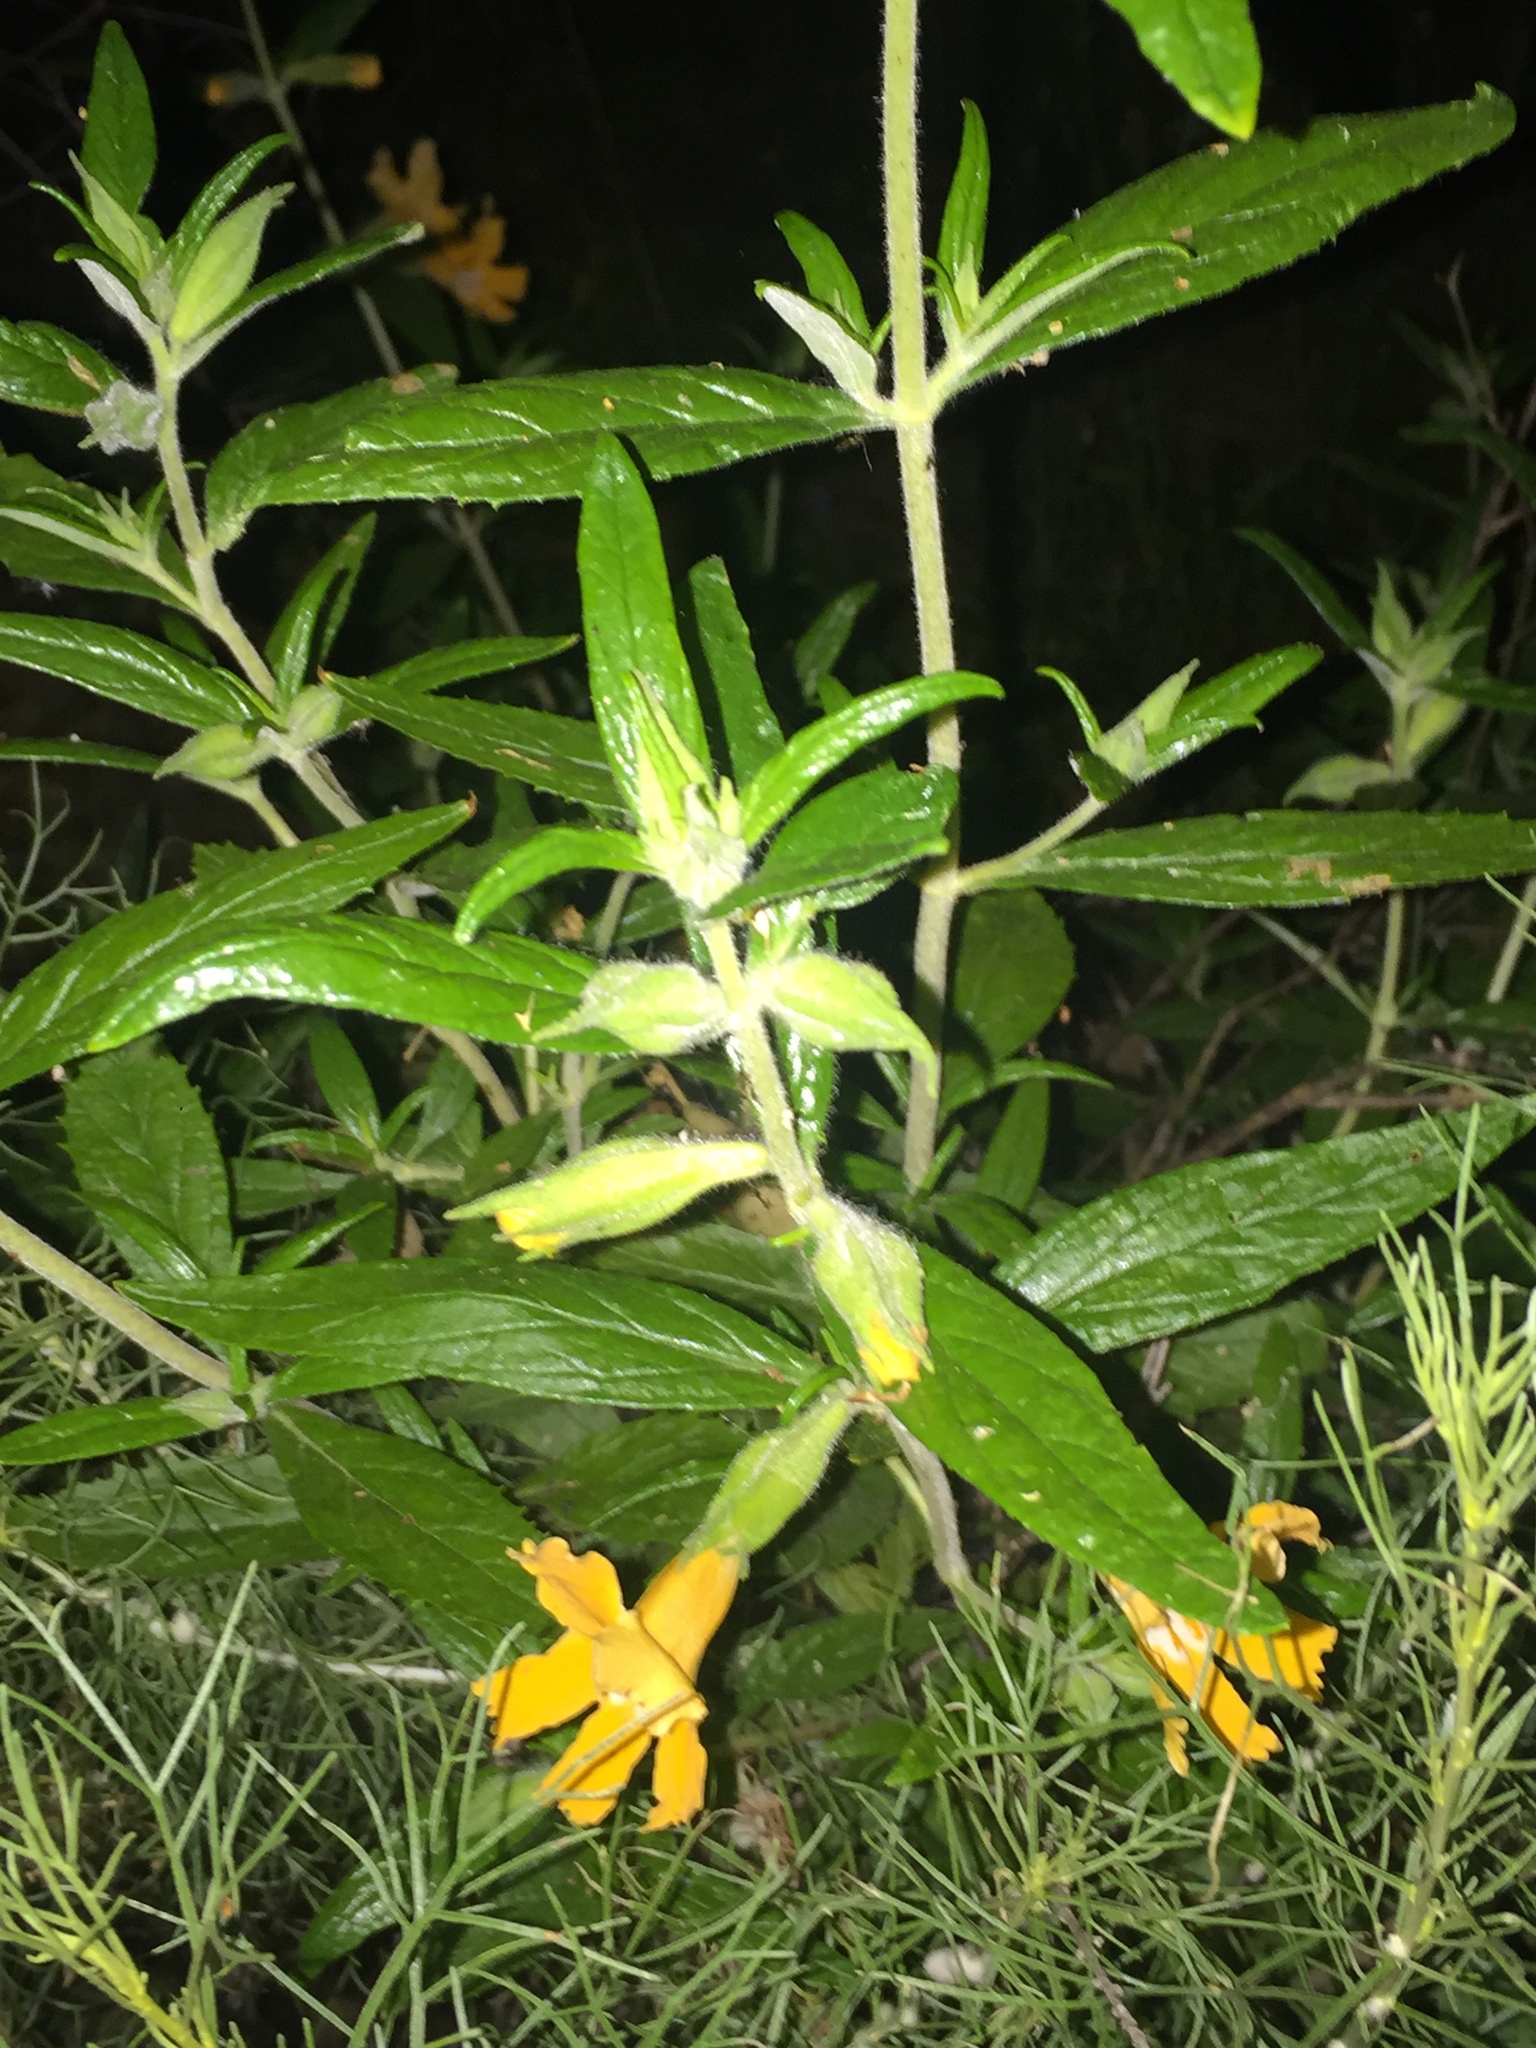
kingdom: Plantae
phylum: Tracheophyta
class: Magnoliopsida
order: Lamiales
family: Phrymaceae
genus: Diplacus
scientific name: Diplacus longiflorus
